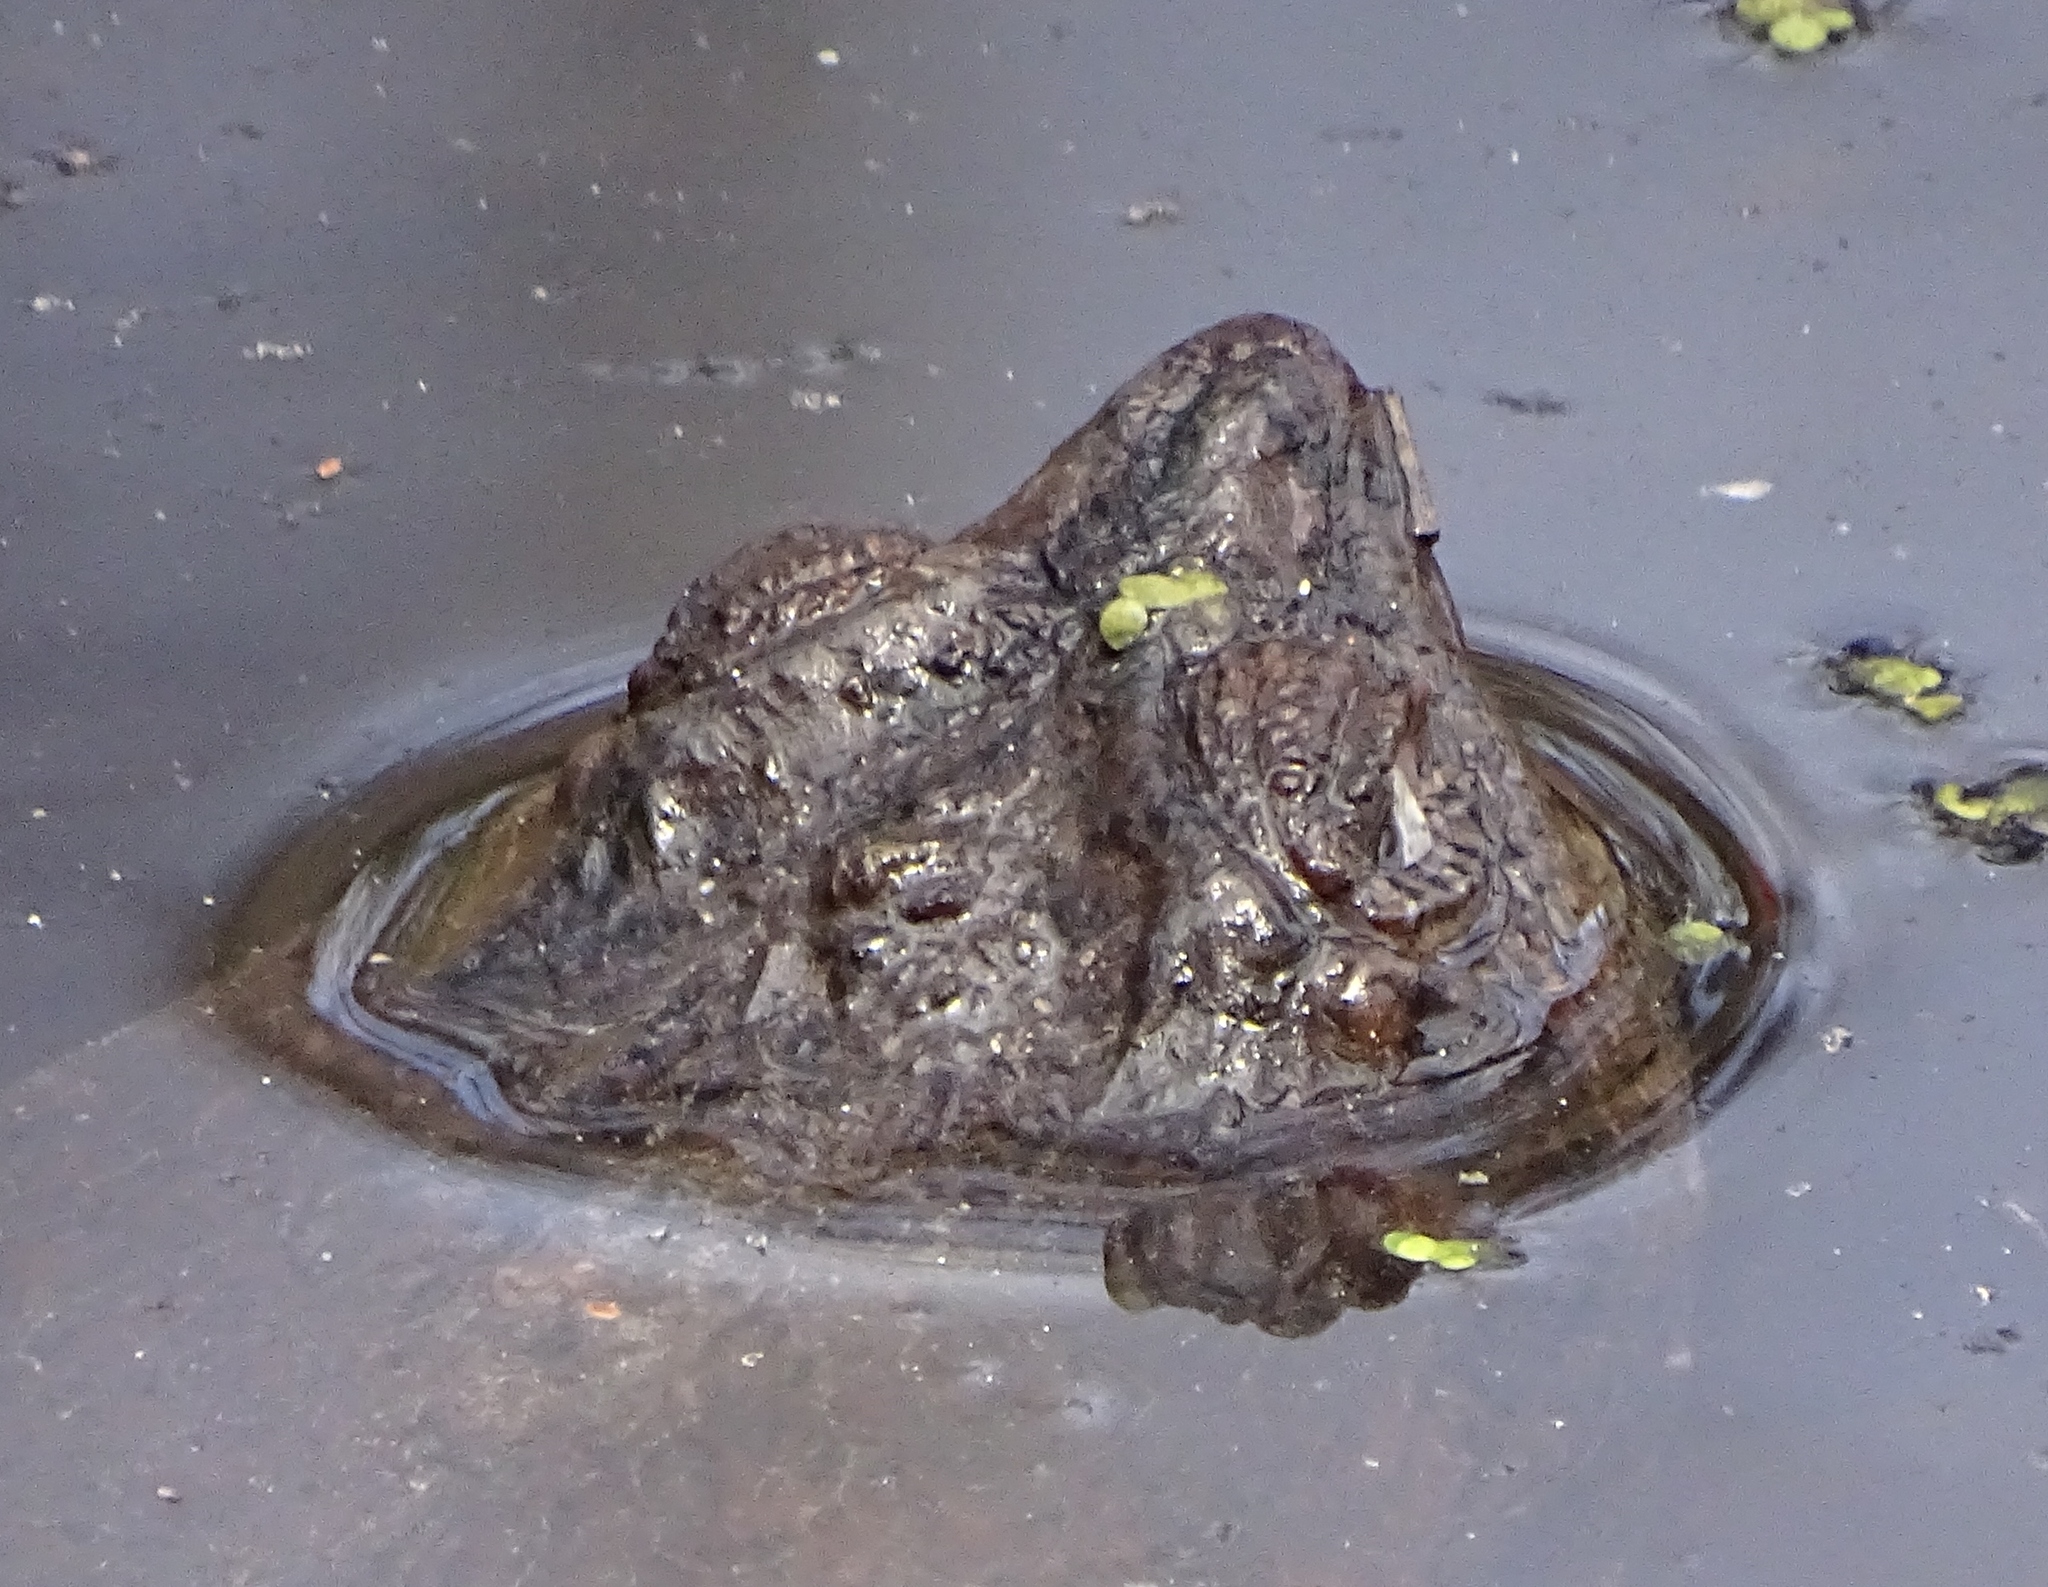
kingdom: Animalia
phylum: Chordata
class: Testudines
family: Chelydridae
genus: Chelydra
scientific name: Chelydra serpentina
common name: Common snapping turtle
